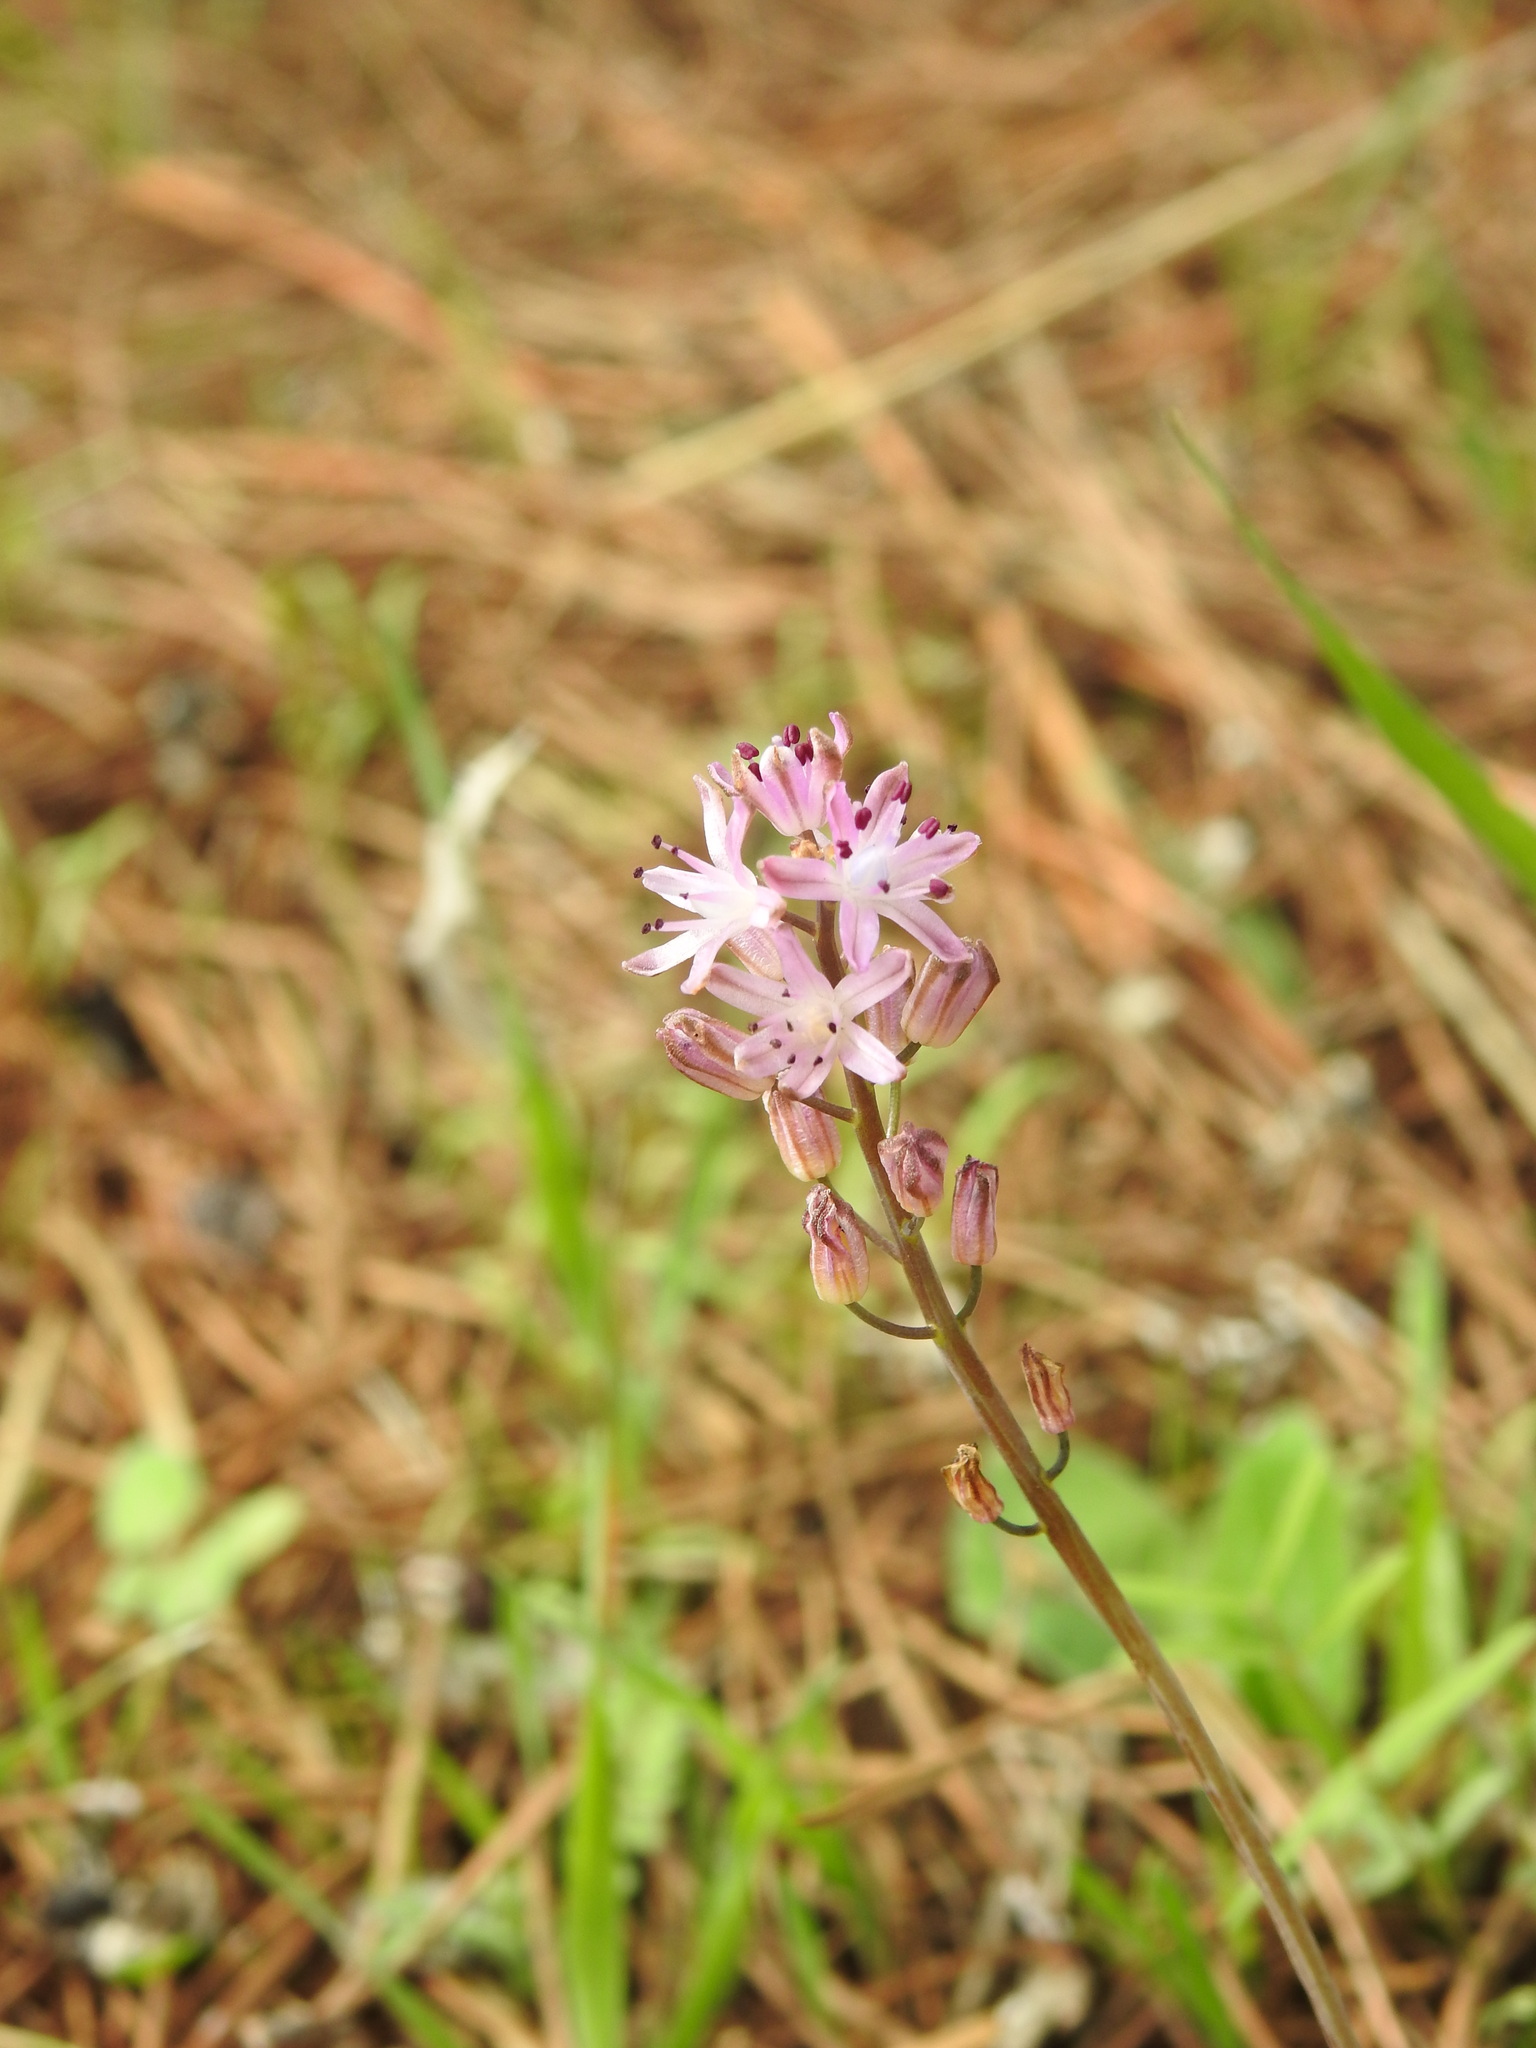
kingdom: Plantae
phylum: Tracheophyta
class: Liliopsida
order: Asparagales
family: Asparagaceae
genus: Prospero
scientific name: Prospero autumnale
